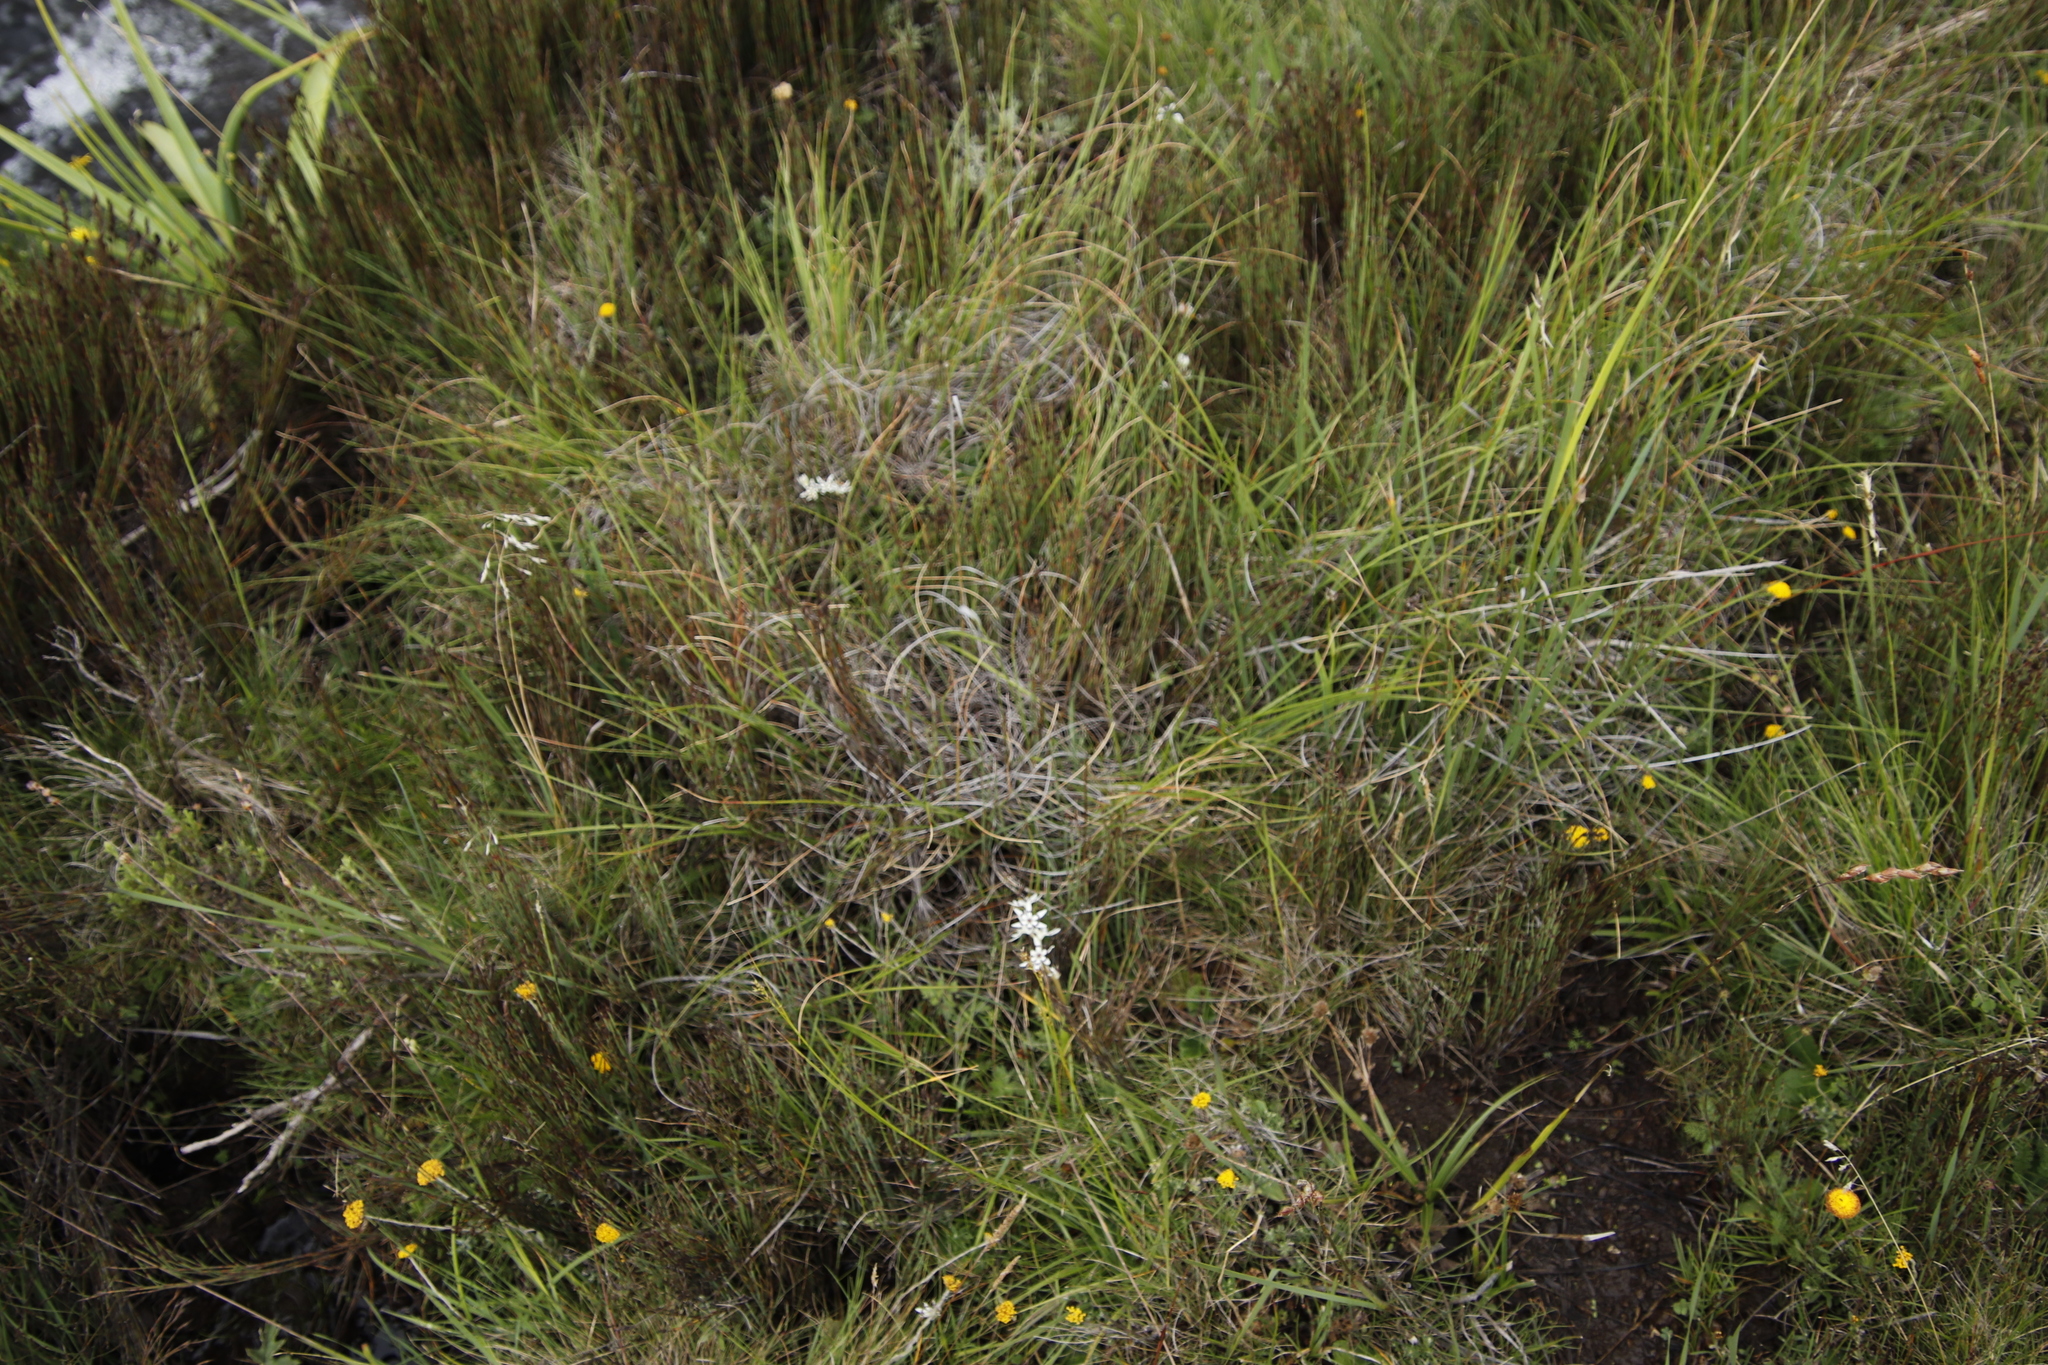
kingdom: Plantae
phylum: Tracheophyta
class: Liliopsida
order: Liliales
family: Colchicaceae
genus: Wurmbea
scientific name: Wurmbea elatior
